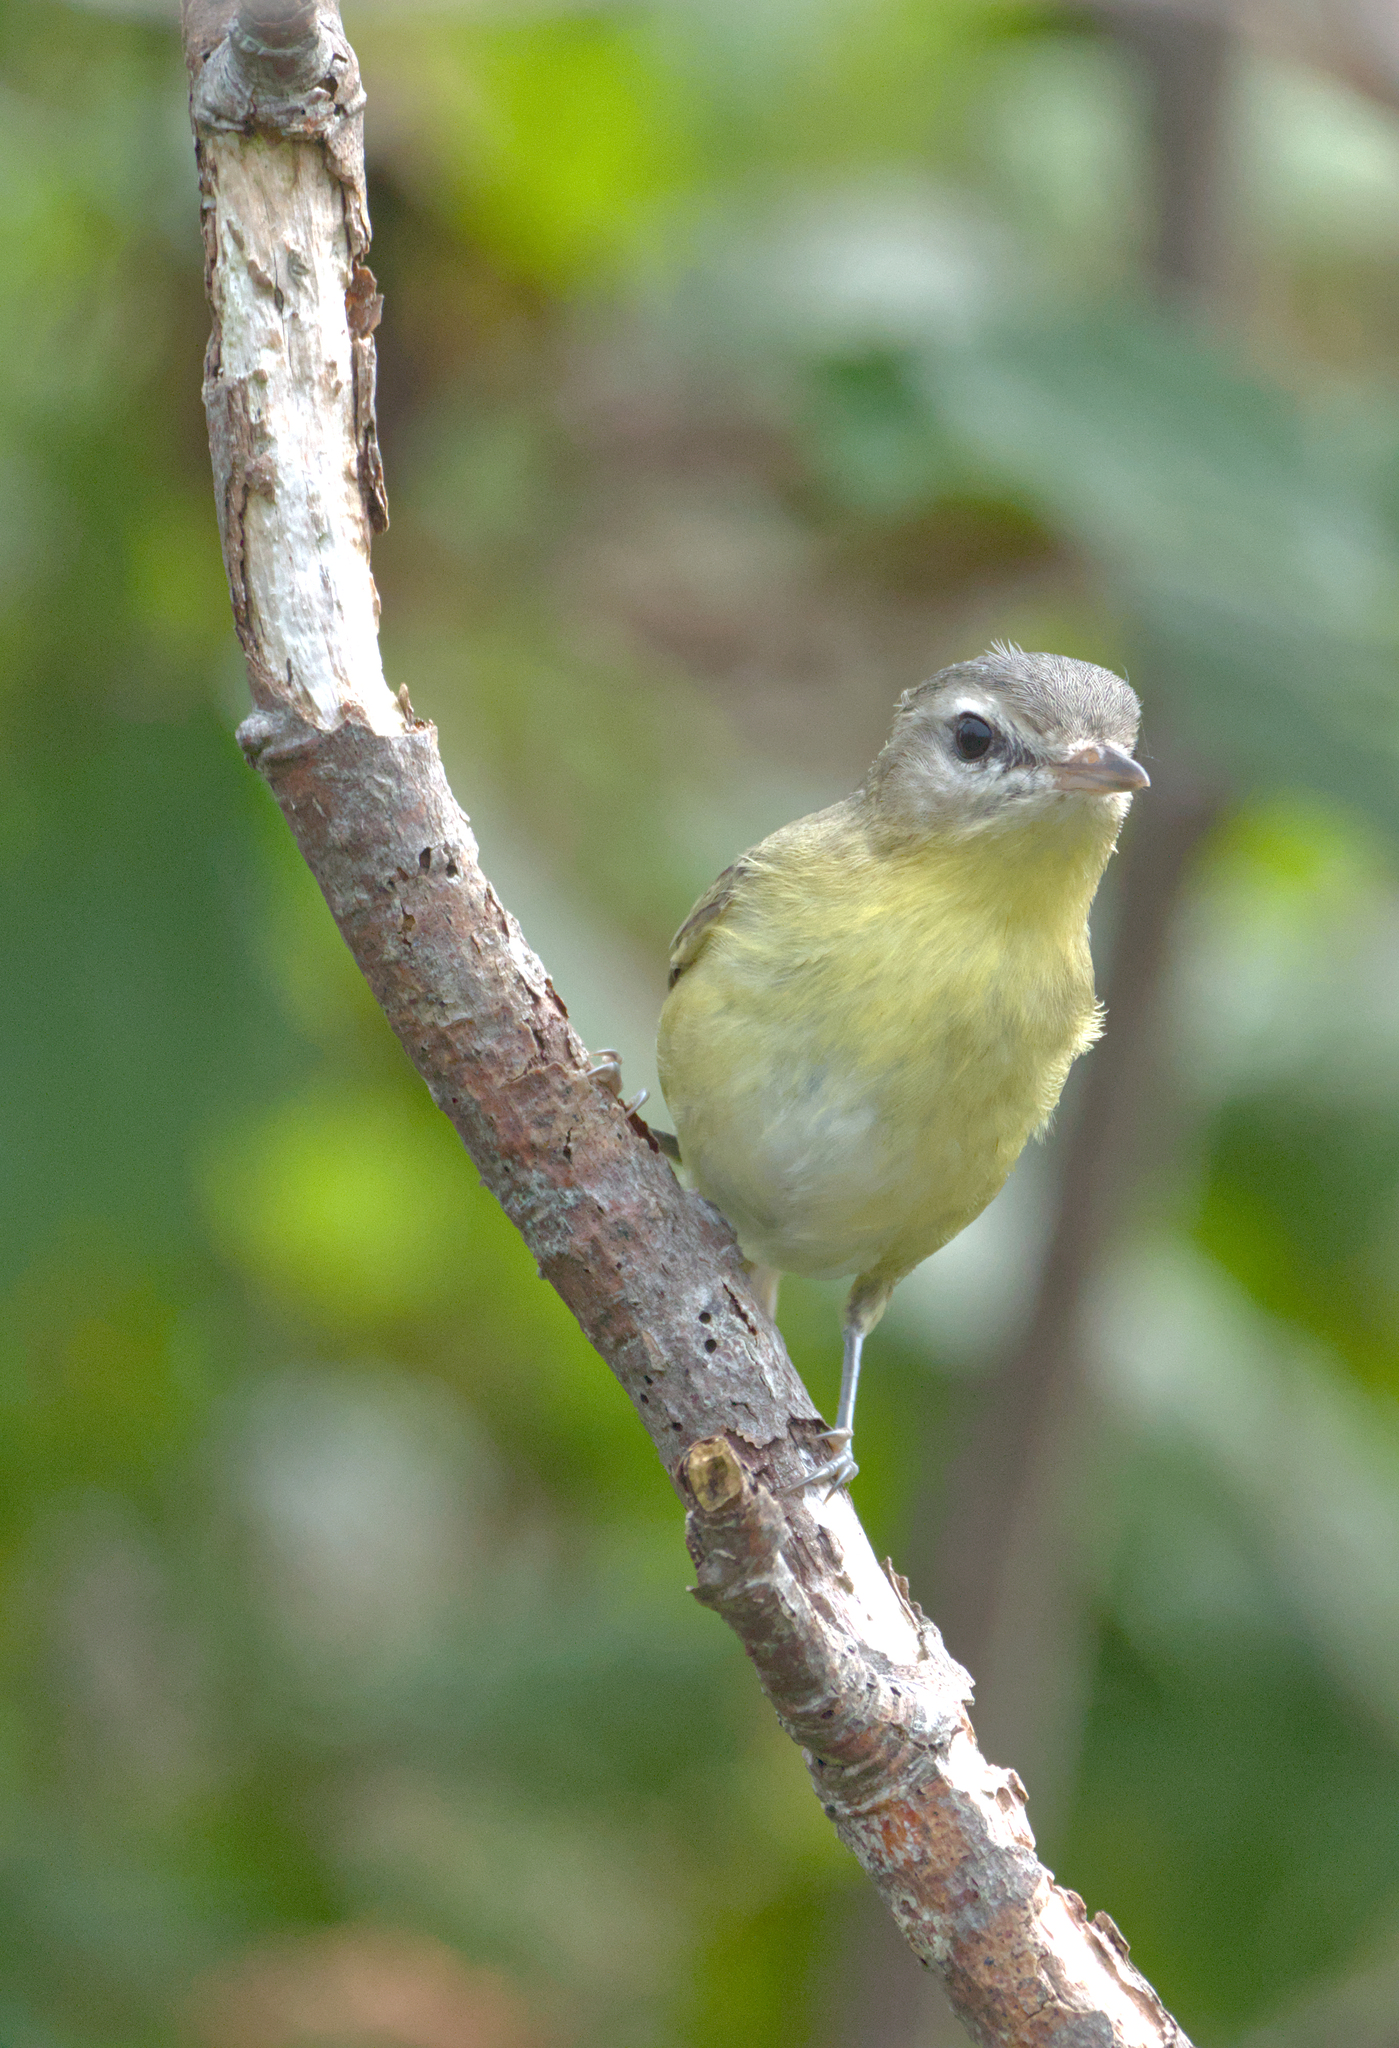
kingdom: Animalia
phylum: Chordata
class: Aves
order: Passeriformes
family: Vireonidae
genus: Vireo
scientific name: Vireo philadelphicus
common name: Philadelphia vireo
